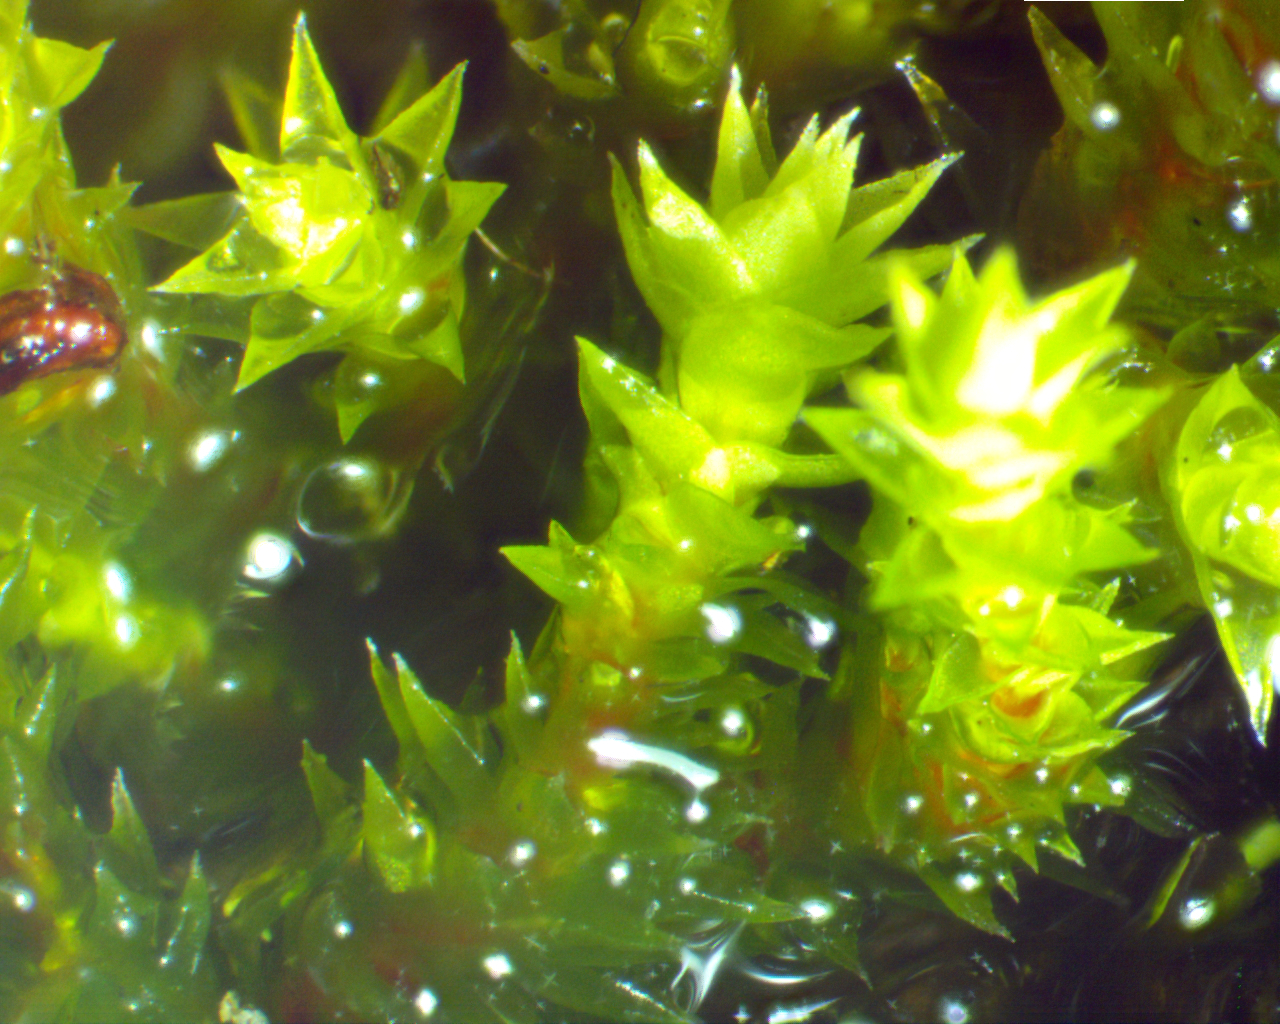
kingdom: Plantae
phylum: Bryophyta
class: Bryopsida
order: Hedwigiales
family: Hedwigiaceae
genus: Hedwigia
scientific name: Hedwigia ciliata
